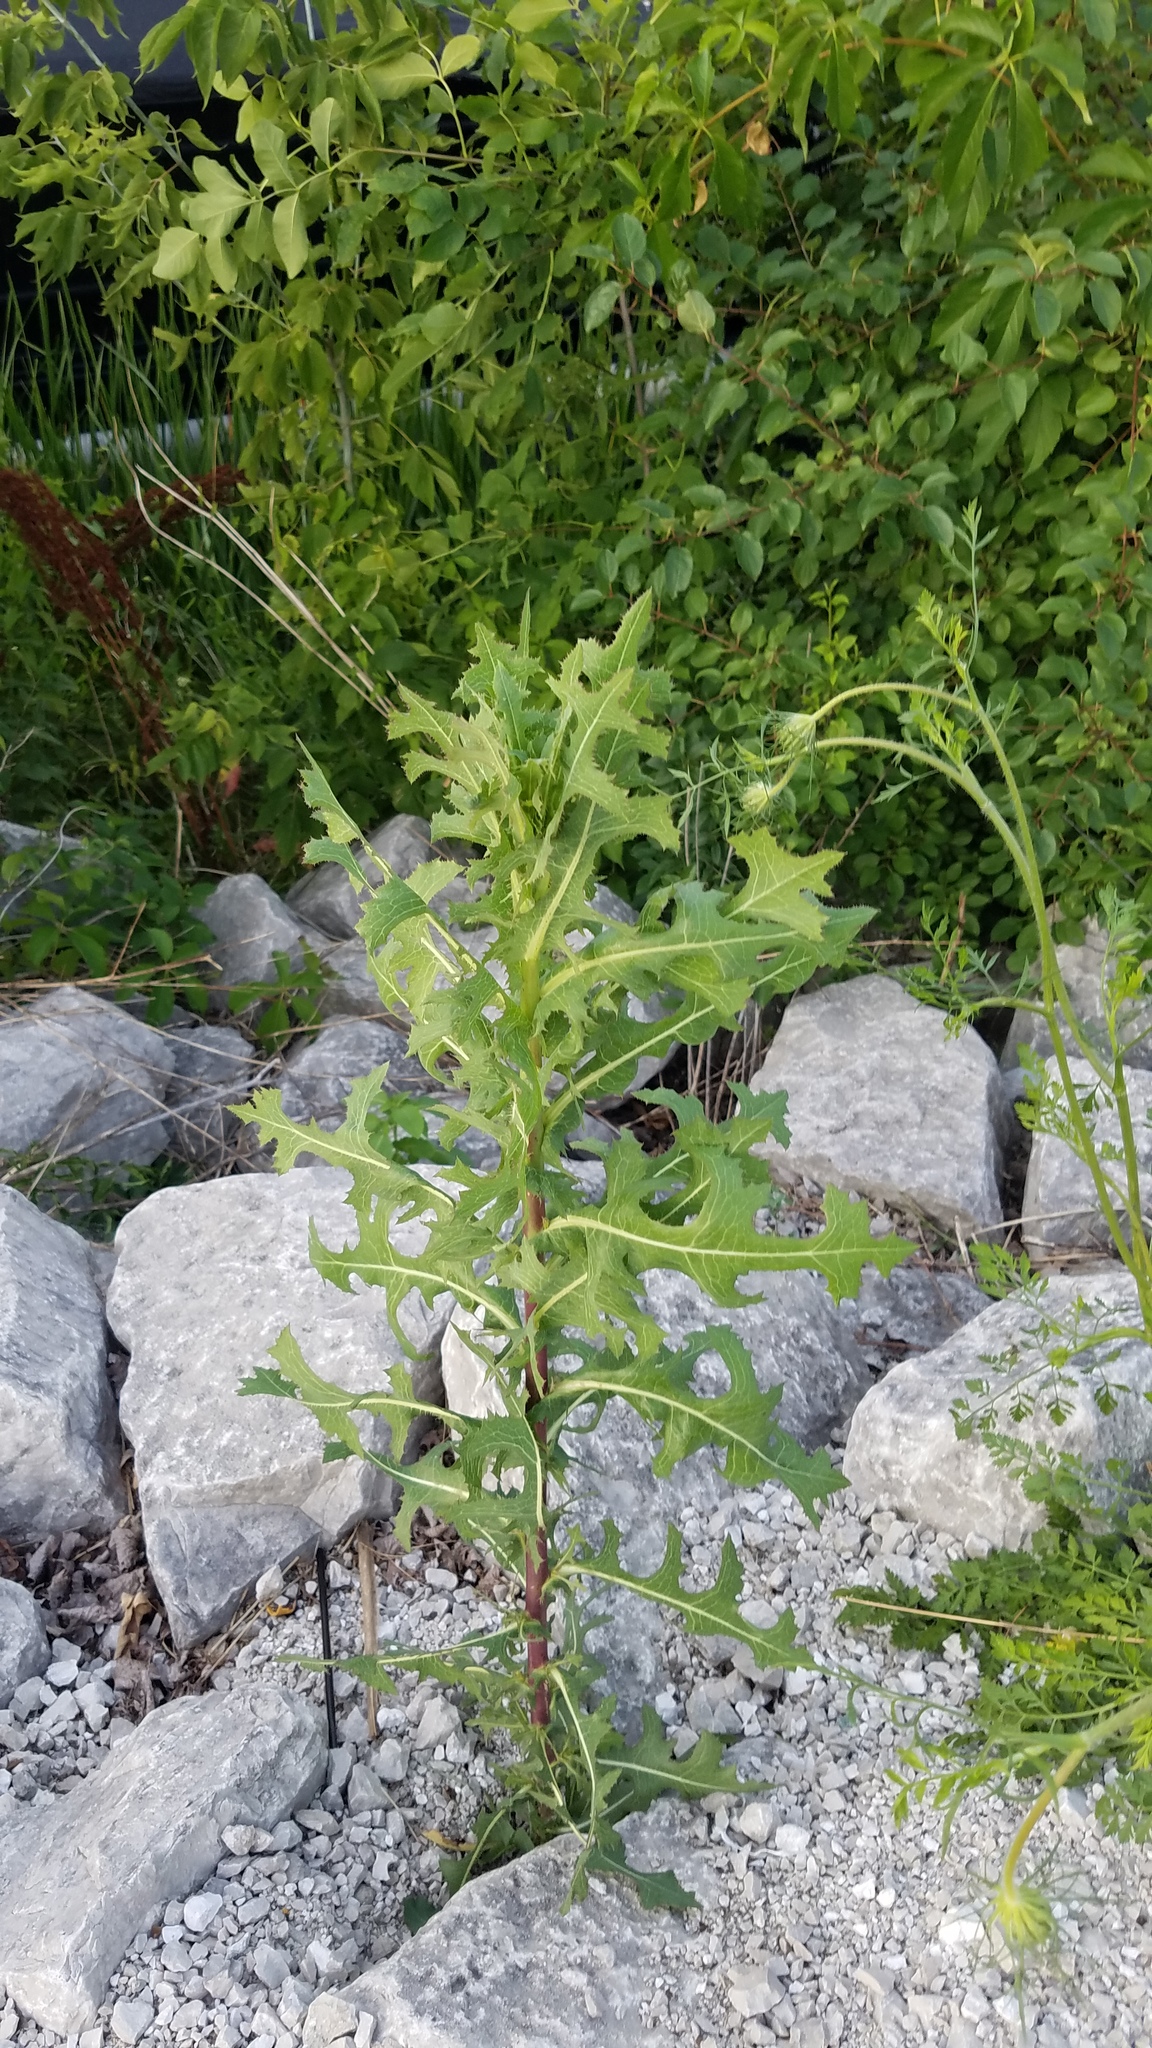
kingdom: Plantae
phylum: Tracheophyta
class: Magnoliopsida
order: Asterales
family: Asteraceae
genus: Lactuca
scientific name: Lactuca serriola
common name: Prickly lettuce
